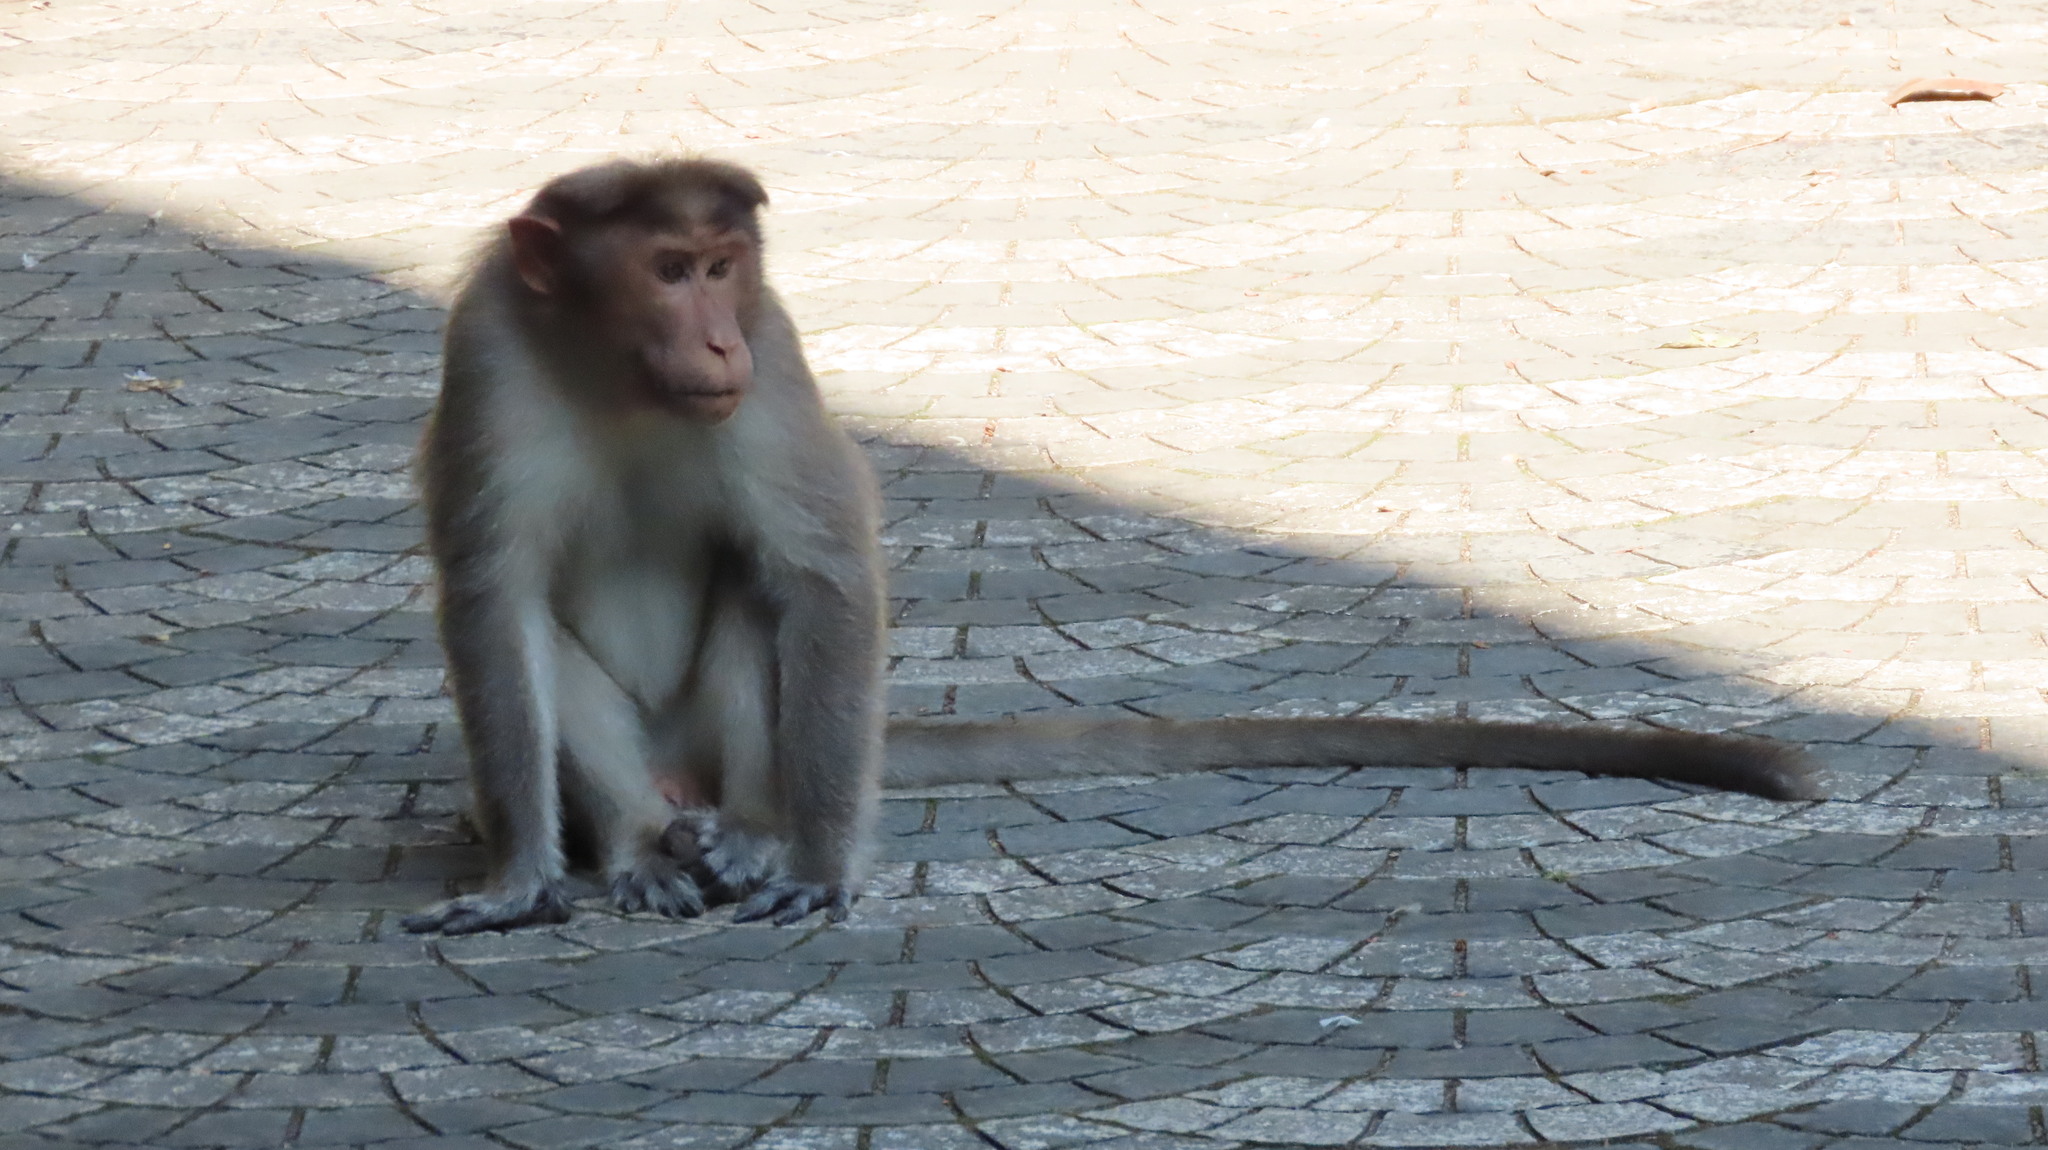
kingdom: Animalia
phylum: Chordata
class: Mammalia
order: Primates
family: Cercopithecidae
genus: Macaca
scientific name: Macaca radiata
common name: Bonnet macaque
